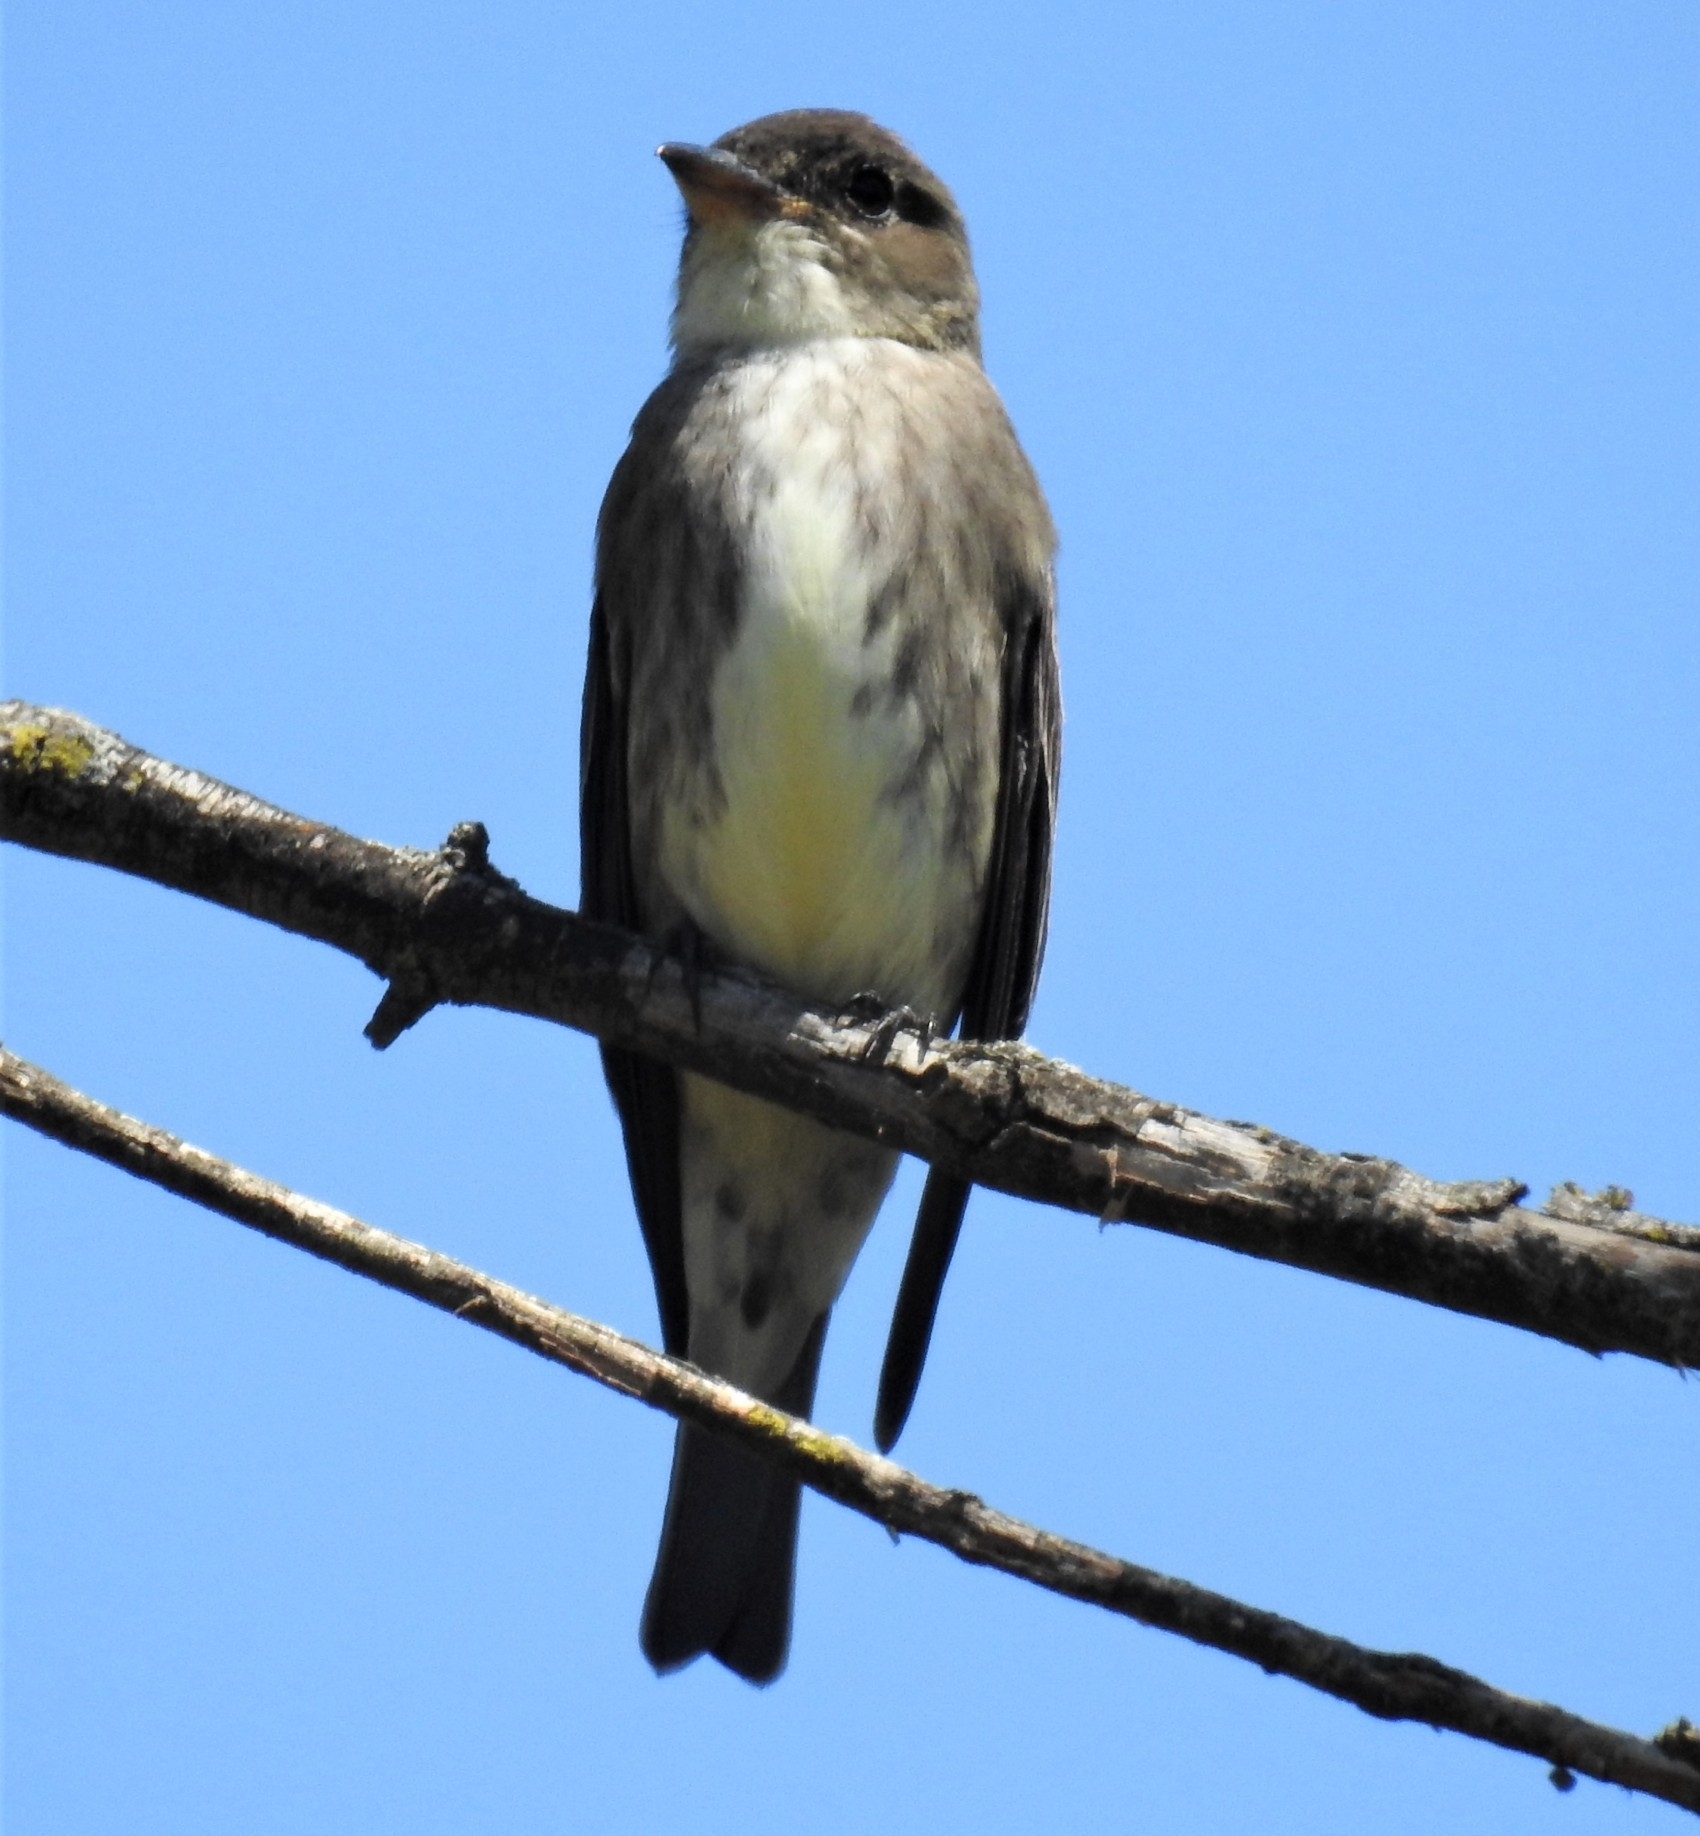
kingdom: Animalia
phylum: Chordata
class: Aves
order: Passeriformes
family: Tyrannidae
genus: Contopus
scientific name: Contopus cooperi
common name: Olive-sided flycatcher
